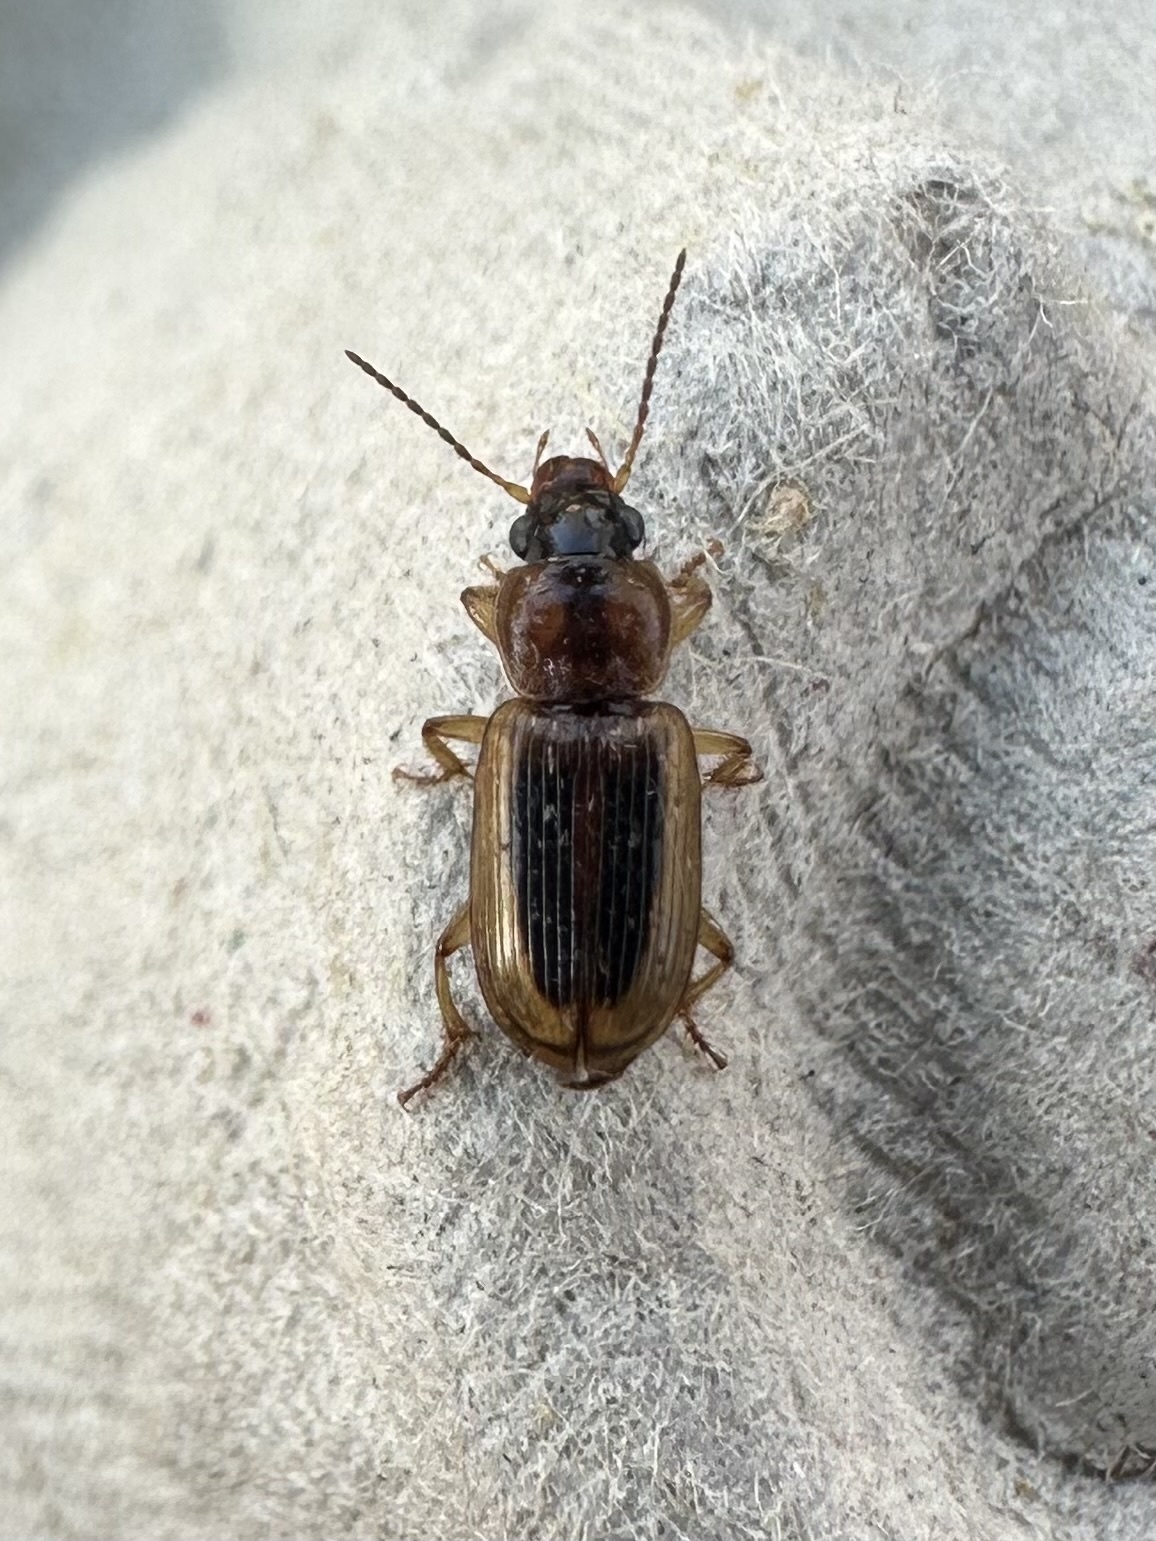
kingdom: Animalia
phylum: Arthropoda
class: Insecta
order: Coleoptera
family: Carabidae
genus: Stenolophus
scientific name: Stenolophus lecontei
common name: Leconte's seedcorn beetle
